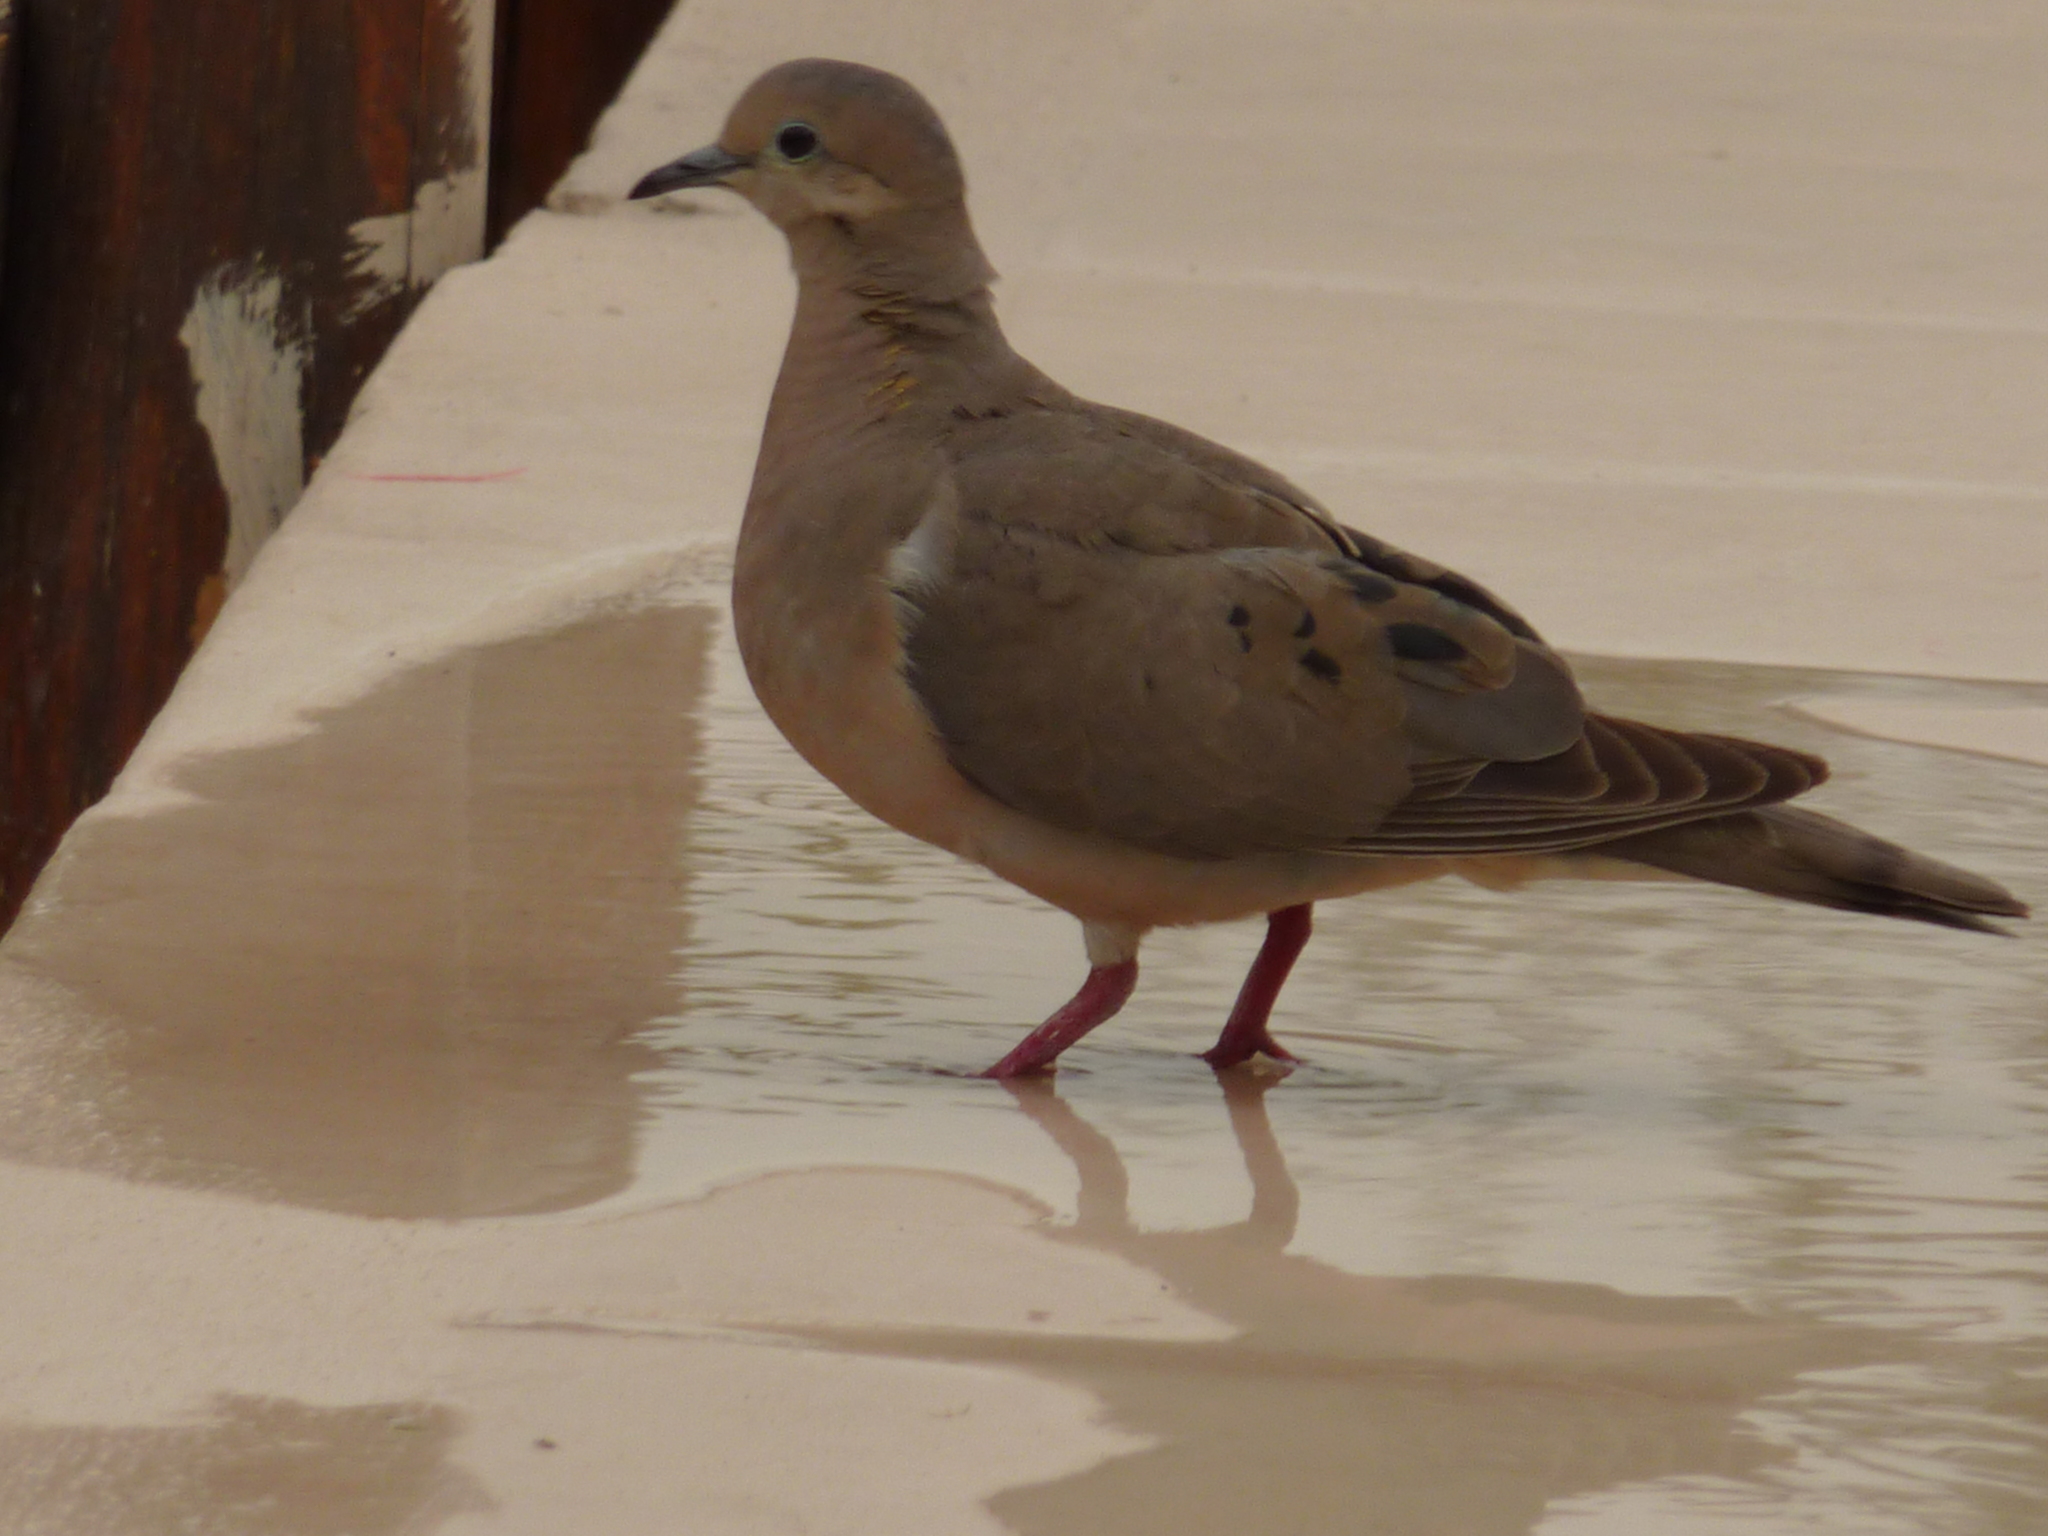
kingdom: Animalia
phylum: Chordata
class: Aves
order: Columbiformes
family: Columbidae
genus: Zenaida
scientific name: Zenaida auriculata
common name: Eared dove
